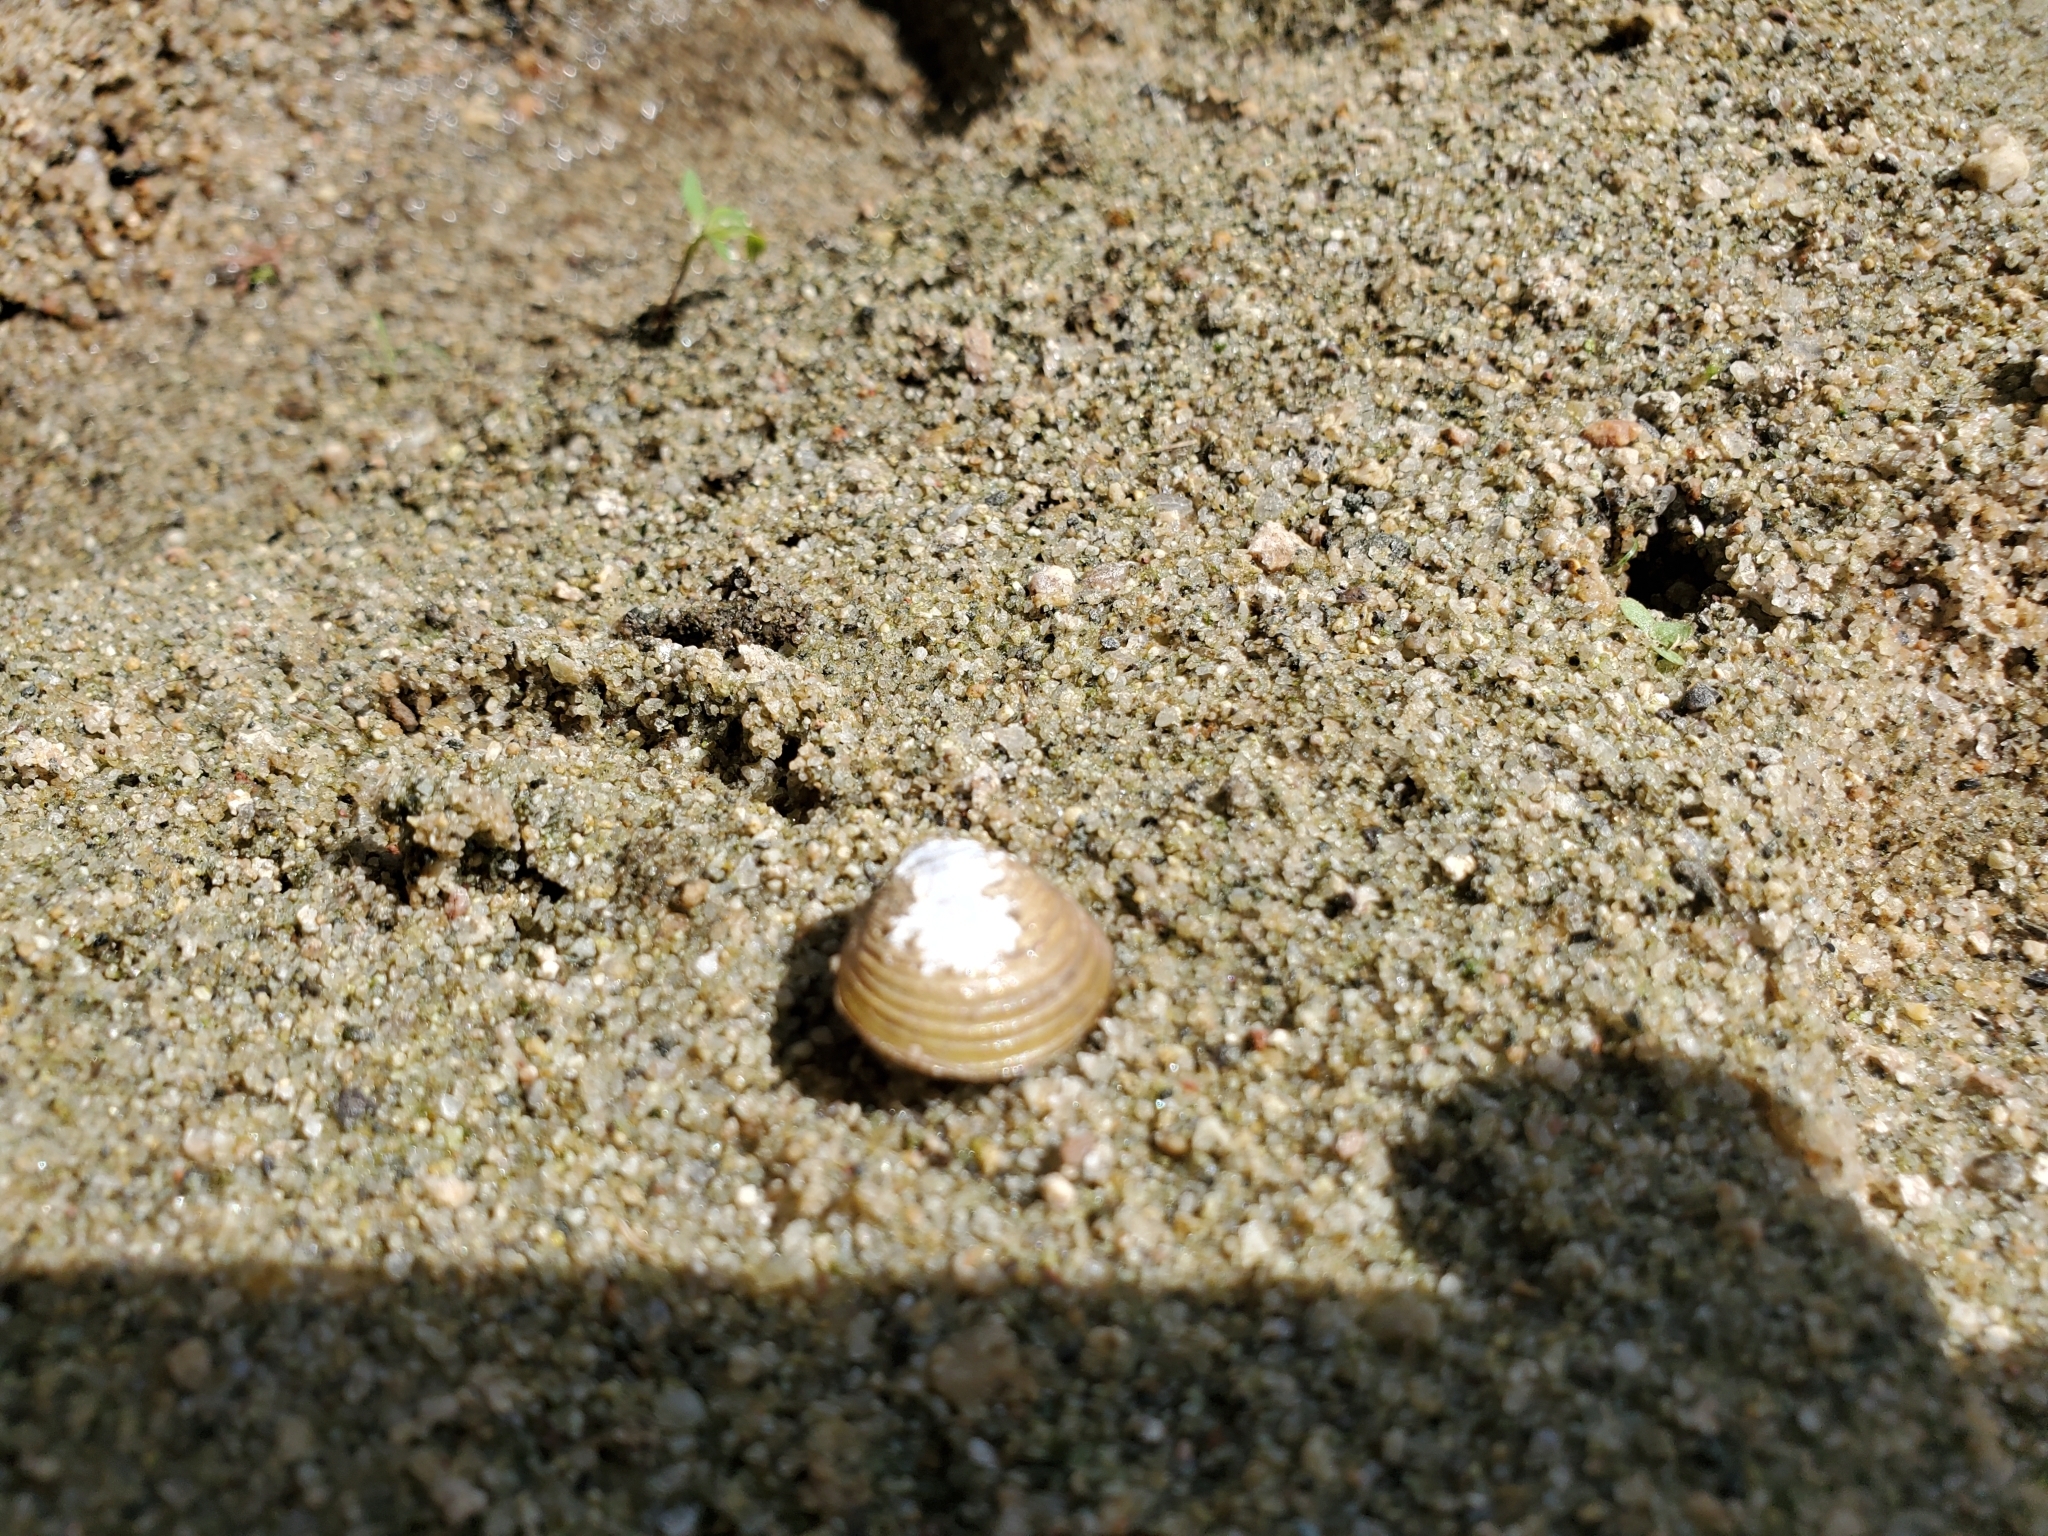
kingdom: Animalia
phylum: Mollusca
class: Bivalvia
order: Venerida
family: Cyrenidae
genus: Corbicula
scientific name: Corbicula fluminea
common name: Asian clam
